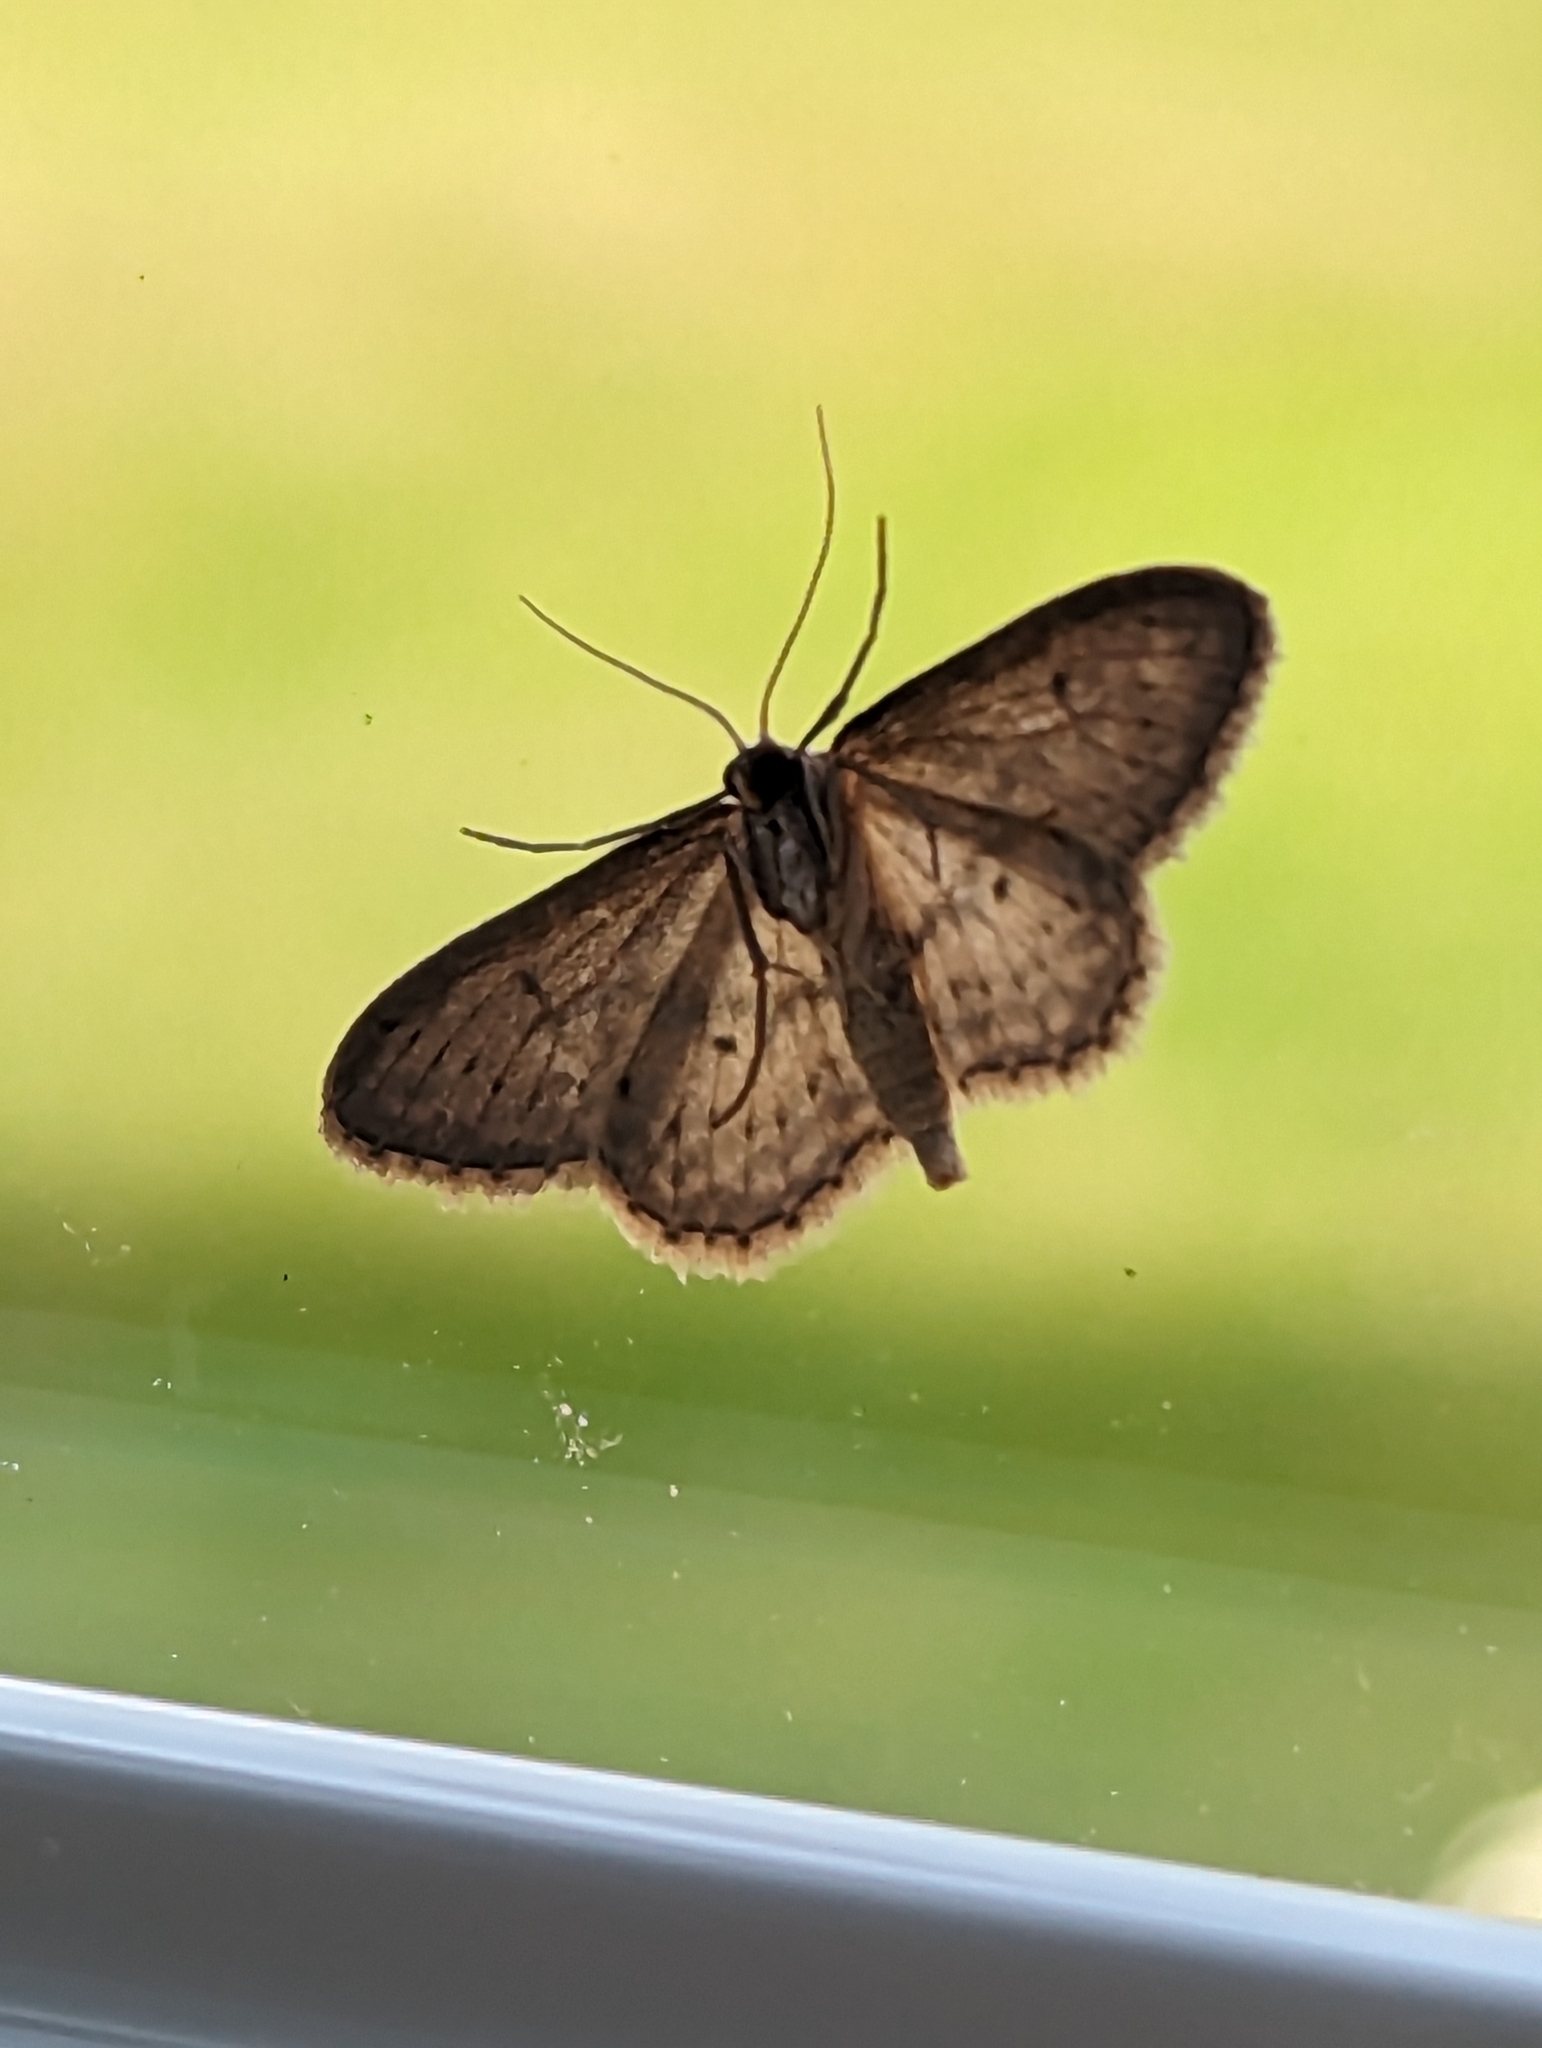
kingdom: Animalia
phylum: Arthropoda
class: Insecta
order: Lepidoptera
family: Geometridae
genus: Idaea
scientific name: Idaea seriata
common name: Small dusty wave
